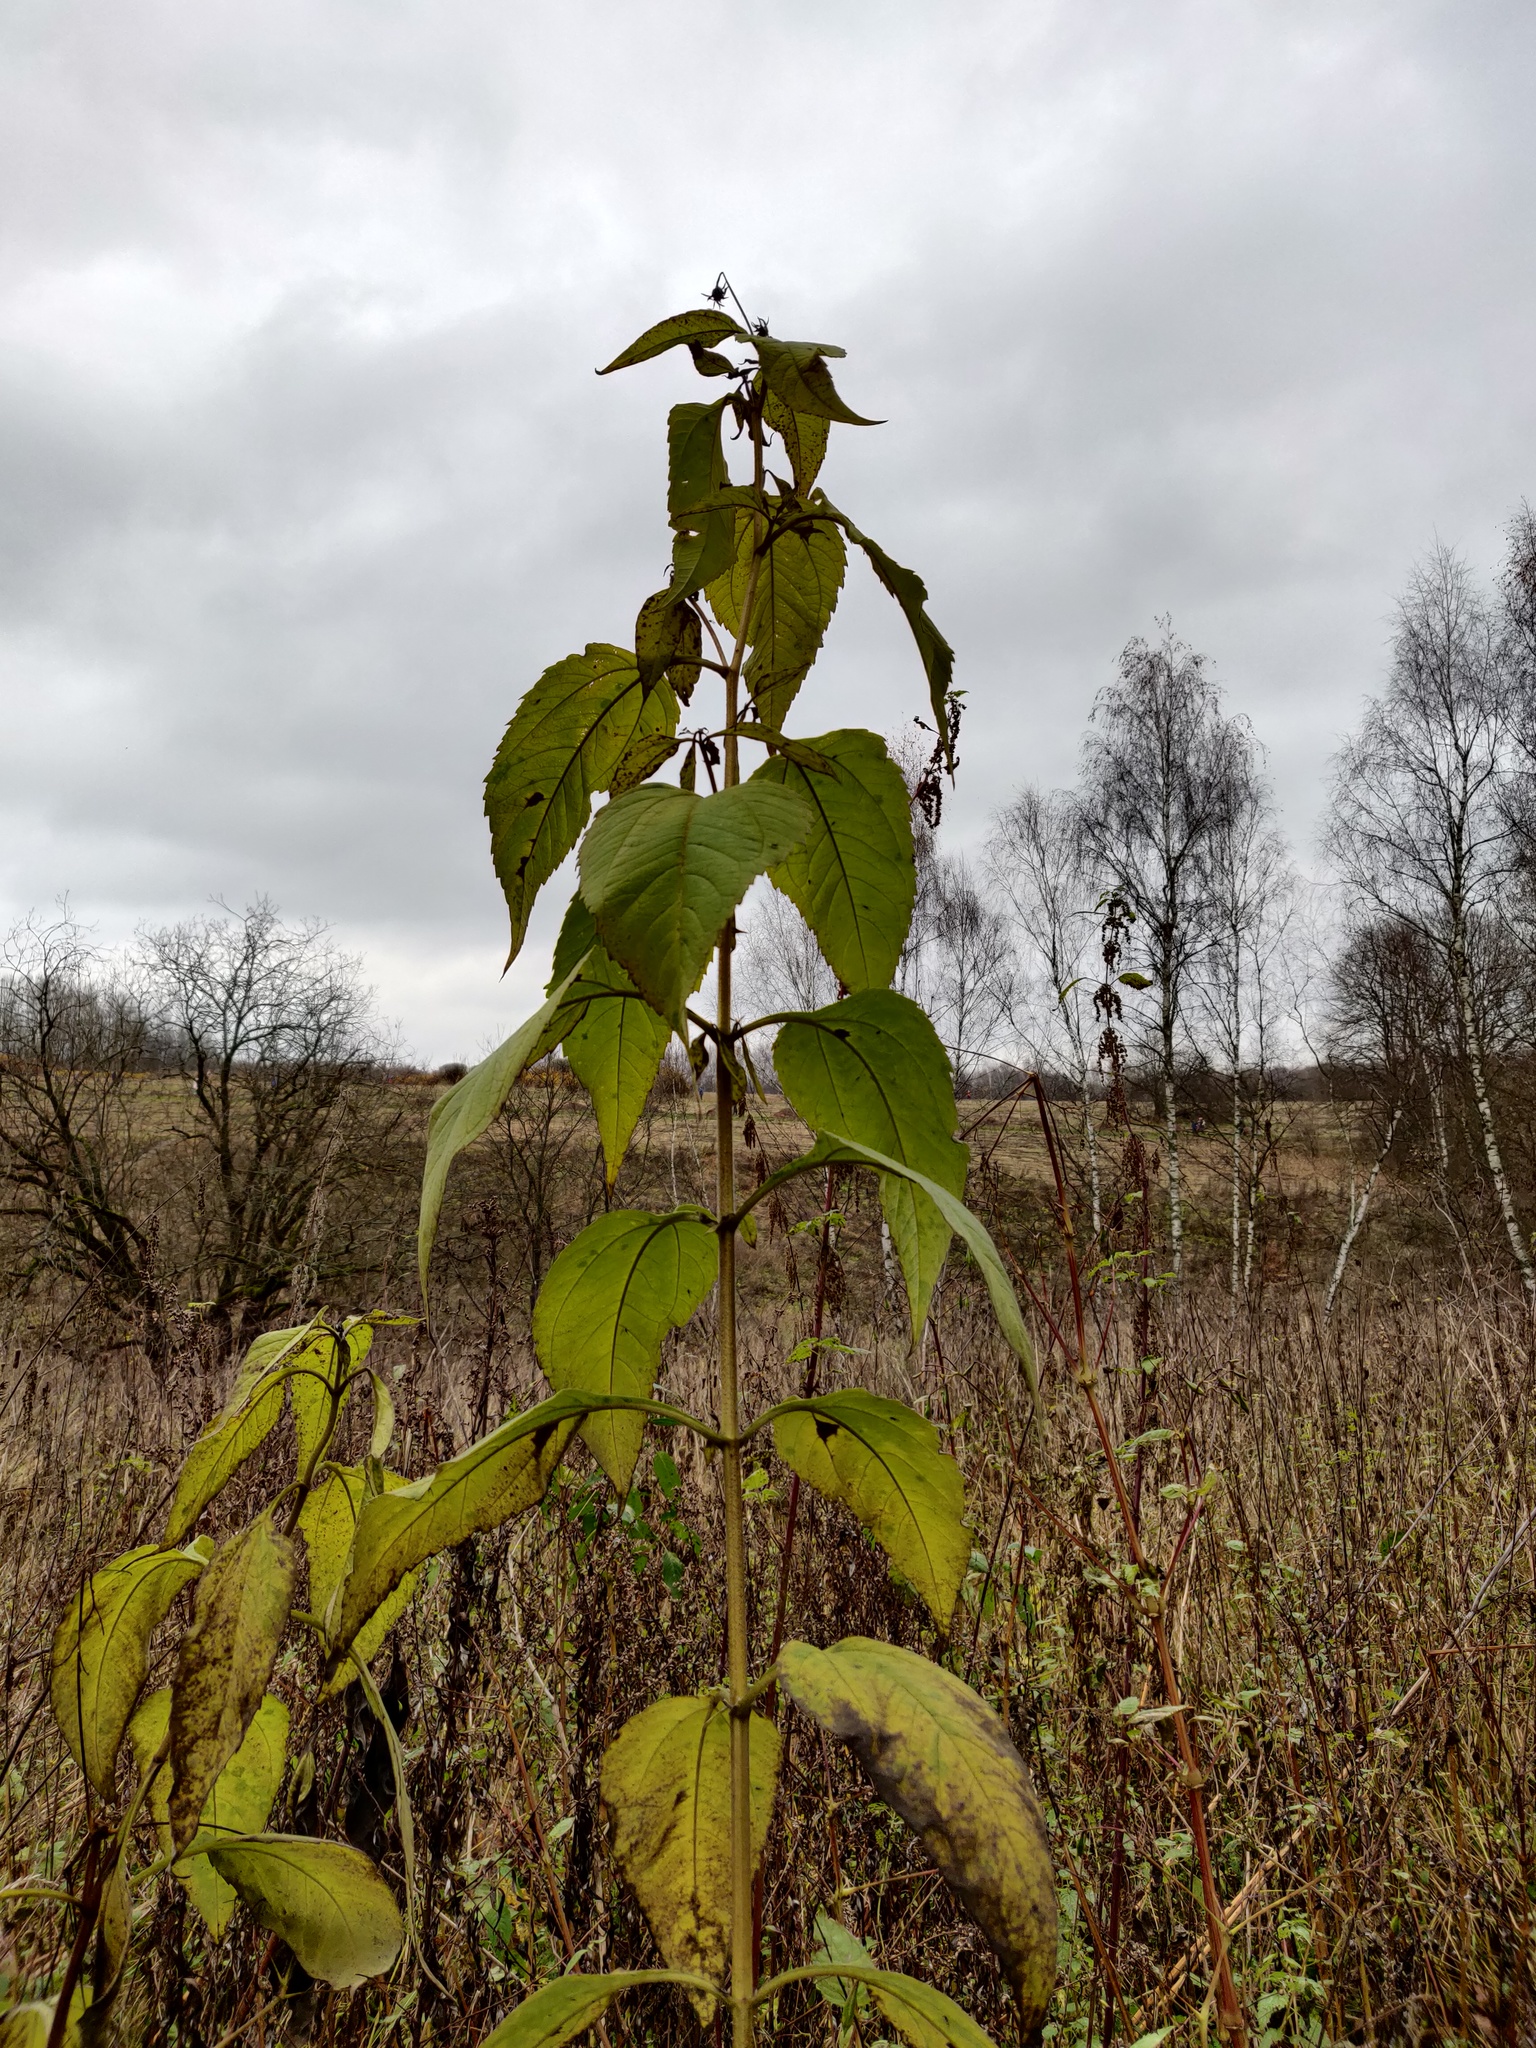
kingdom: Plantae
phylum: Tracheophyta
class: Magnoliopsida
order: Asterales
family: Asteraceae
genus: Helianthus
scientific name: Helianthus tuberosus
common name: Jerusalem artichoke
